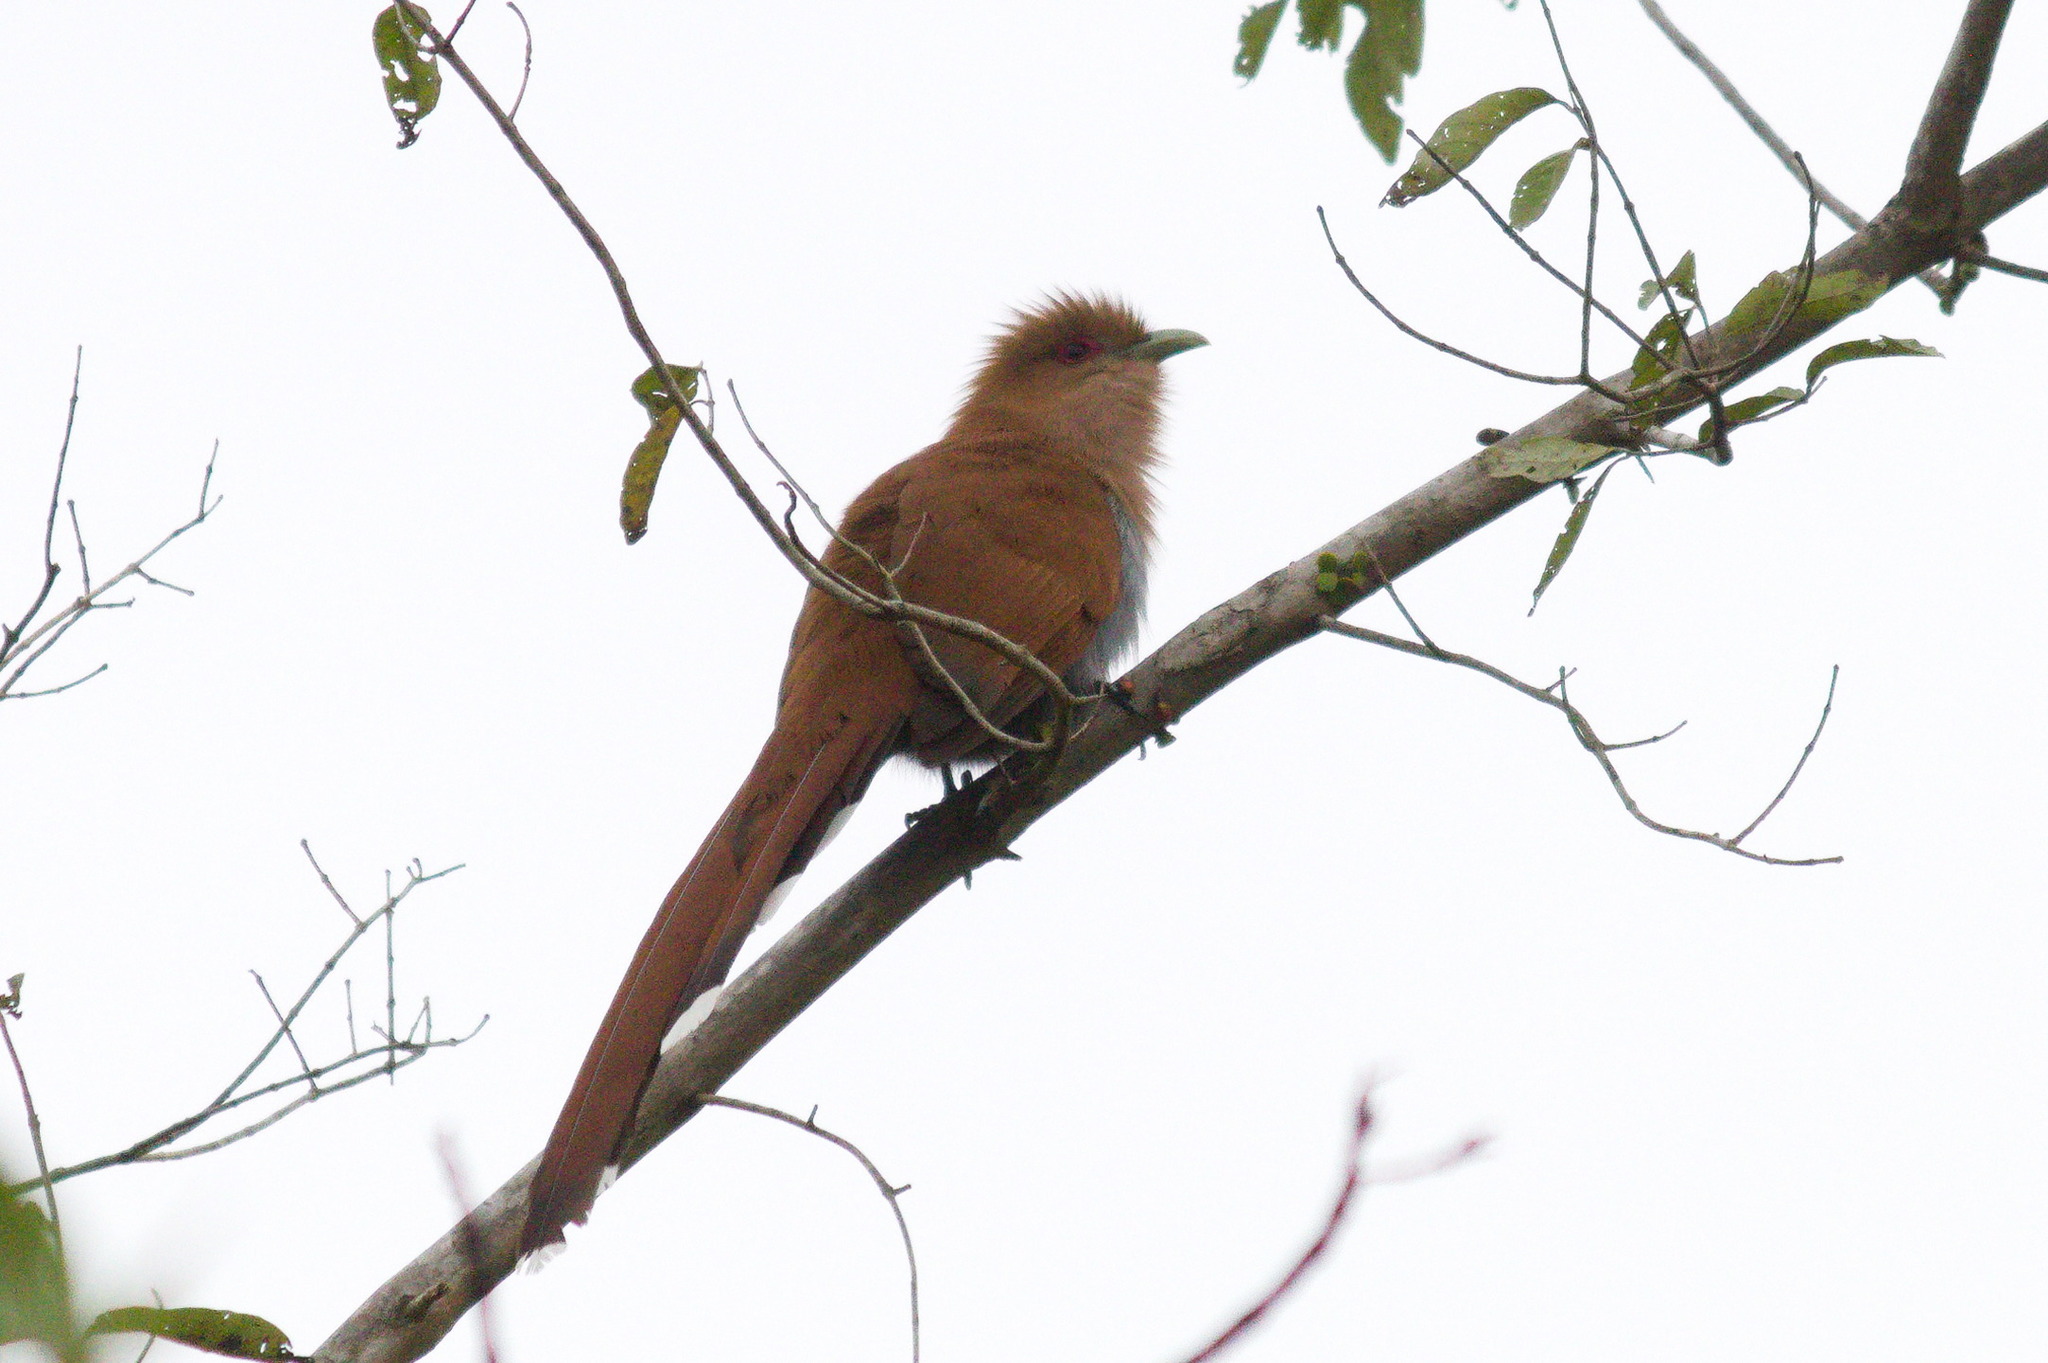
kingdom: Animalia
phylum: Chordata
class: Aves
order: Cuculiformes
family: Cuculidae
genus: Piaya
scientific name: Piaya cayana
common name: Squirrel cuckoo
